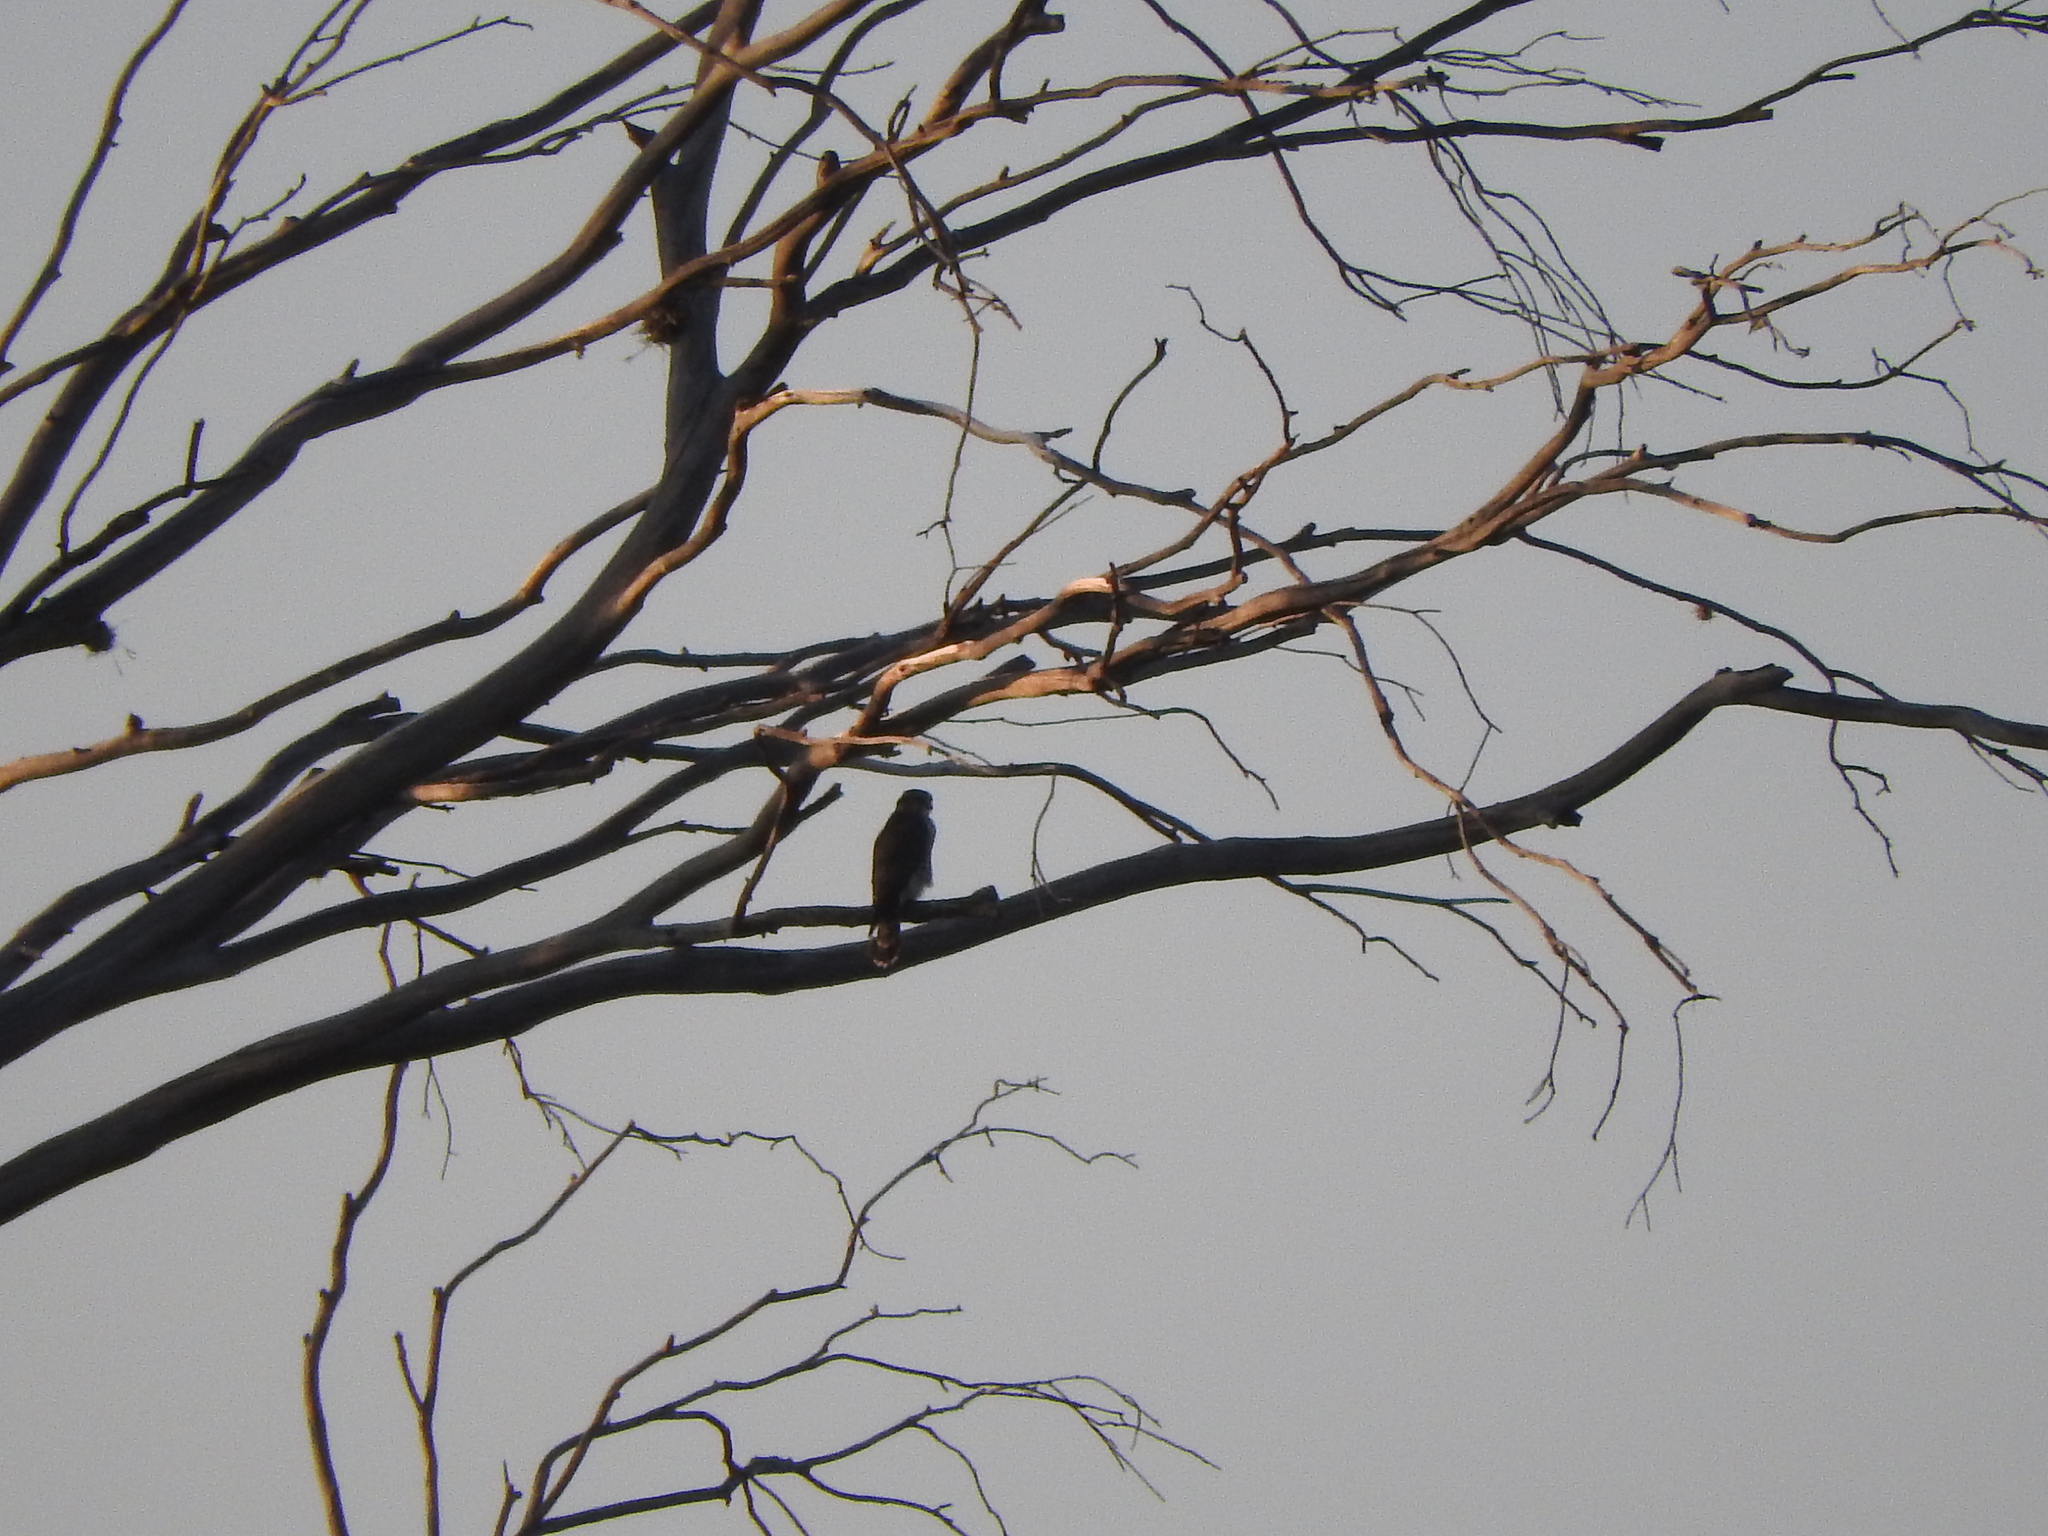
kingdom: Animalia
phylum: Chordata
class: Aves
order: Falconiformes
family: Falconidae
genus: Falco
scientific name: Falco columbarius
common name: Merlin
